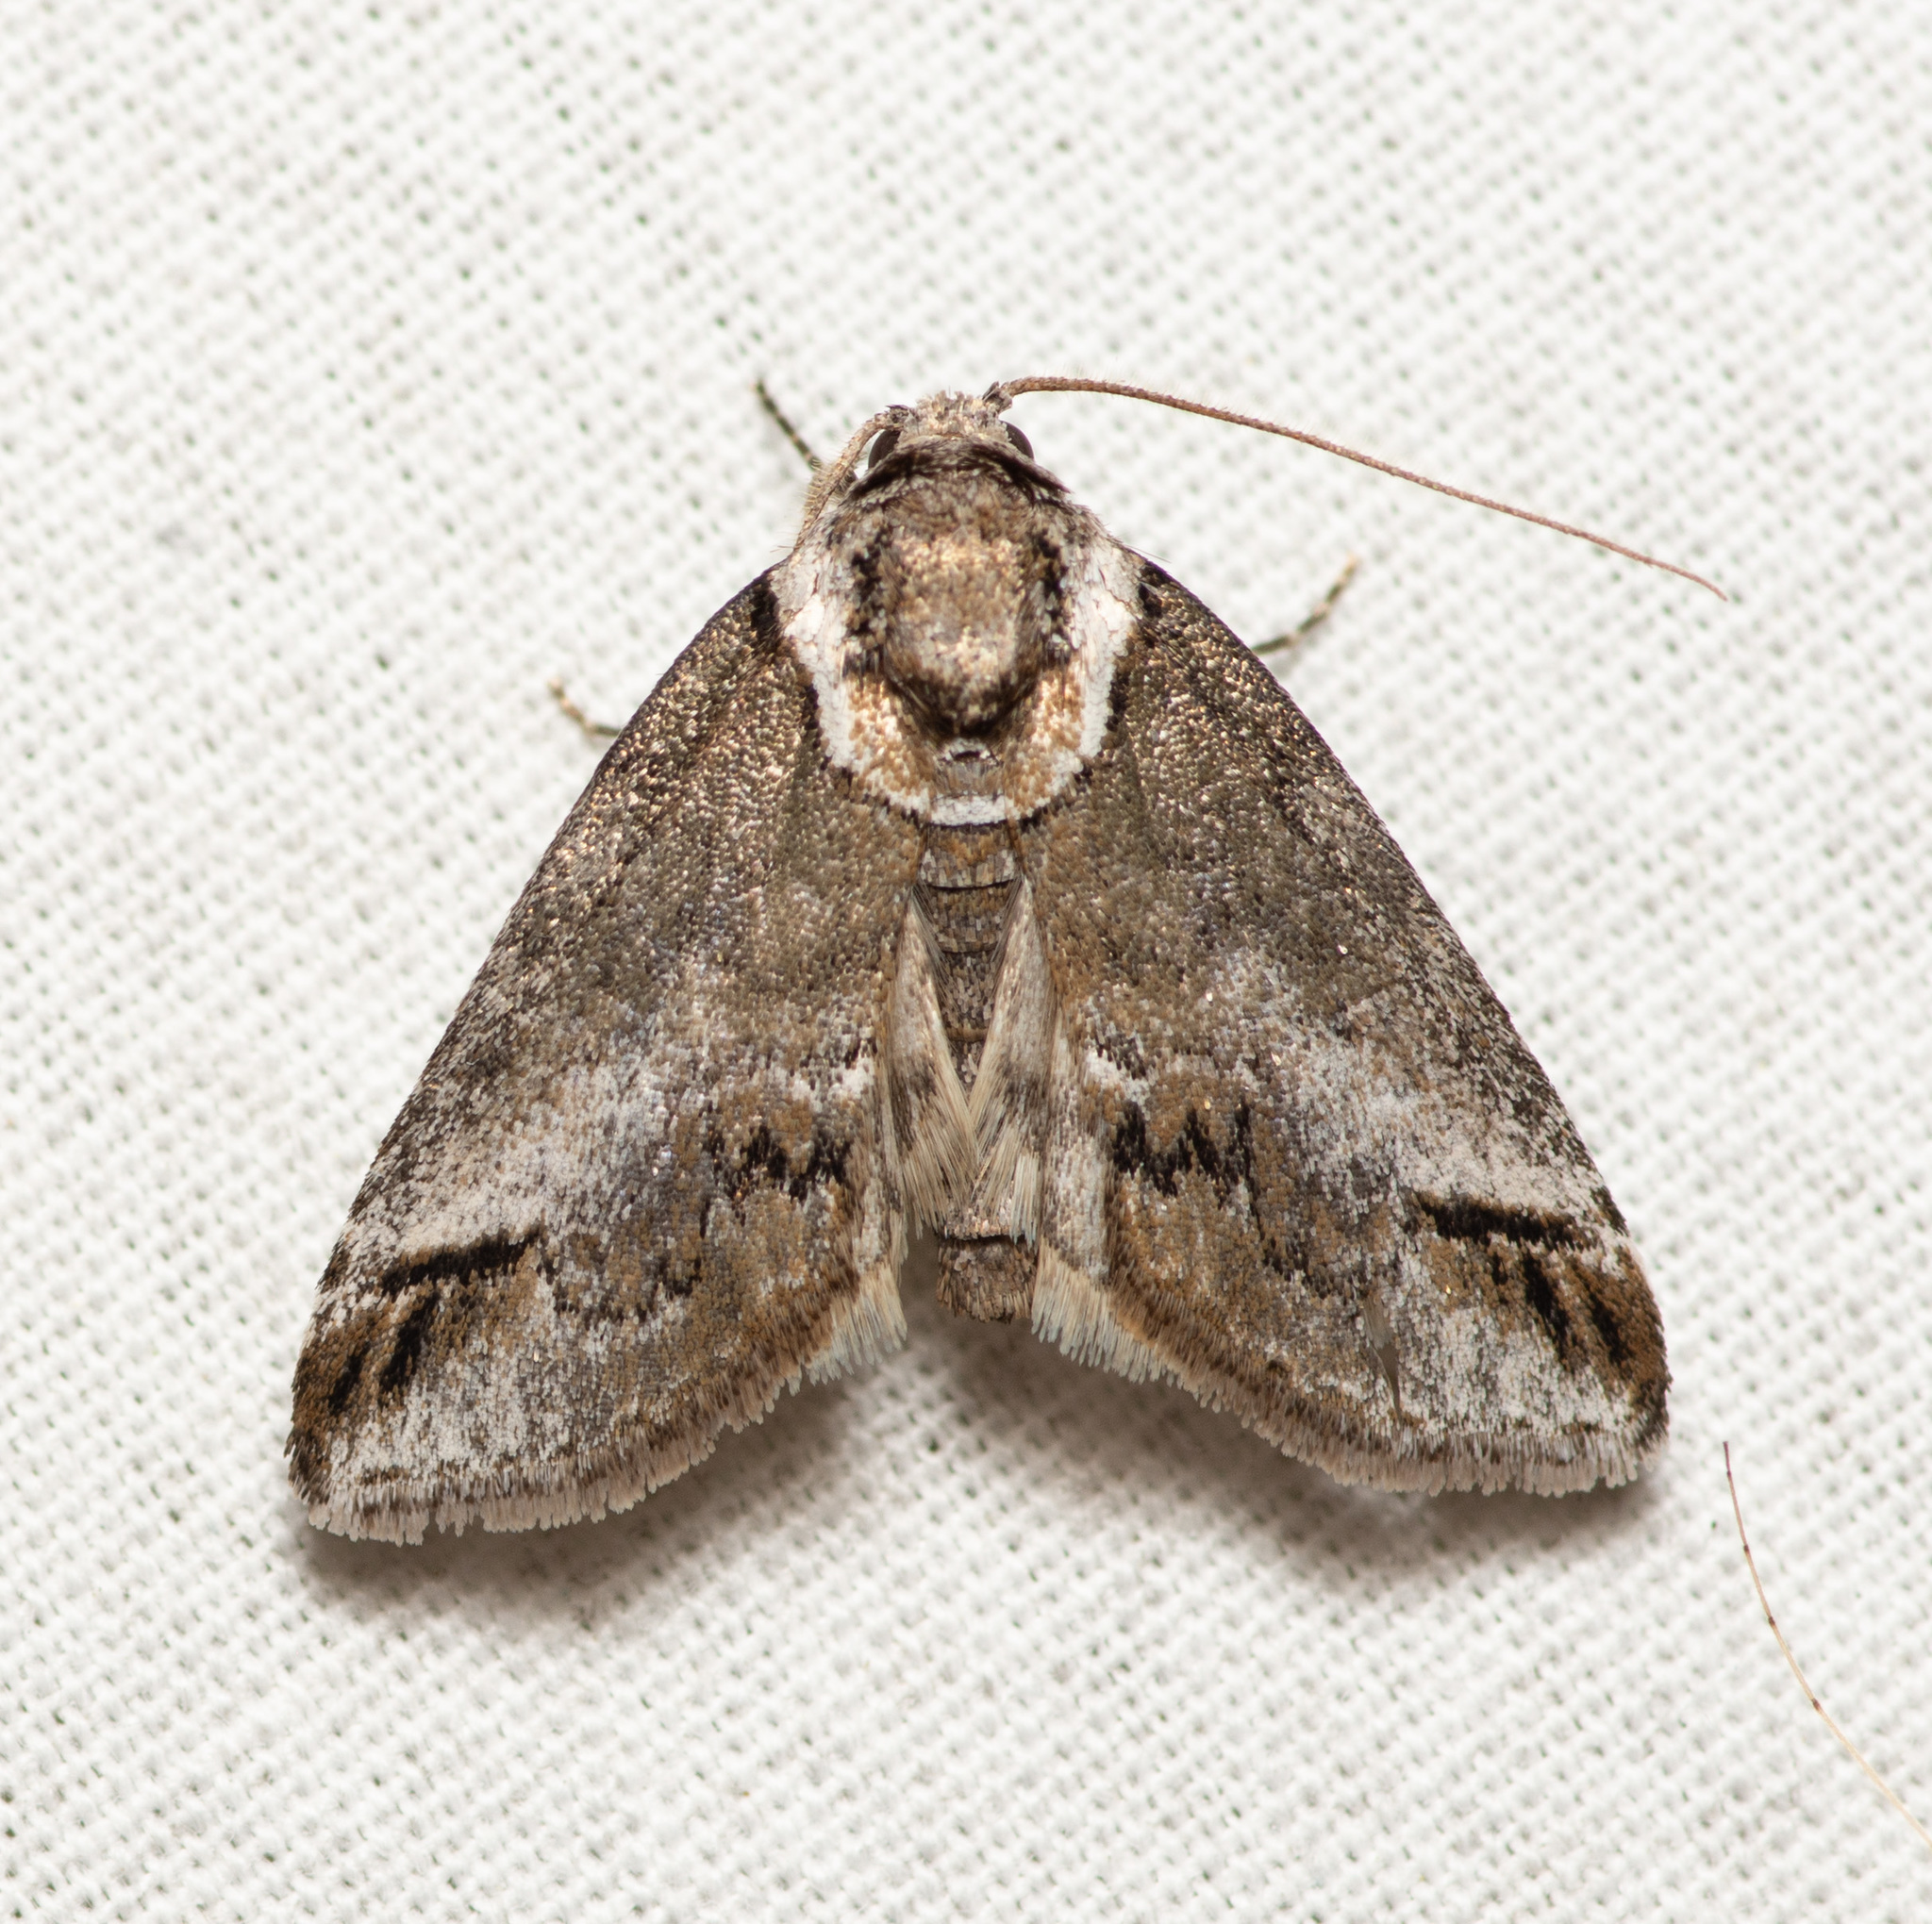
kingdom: Animalia
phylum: Arthropoda
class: Insecta
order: Lepidoptera
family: Nolidae
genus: Baileya
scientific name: Baileya australis
